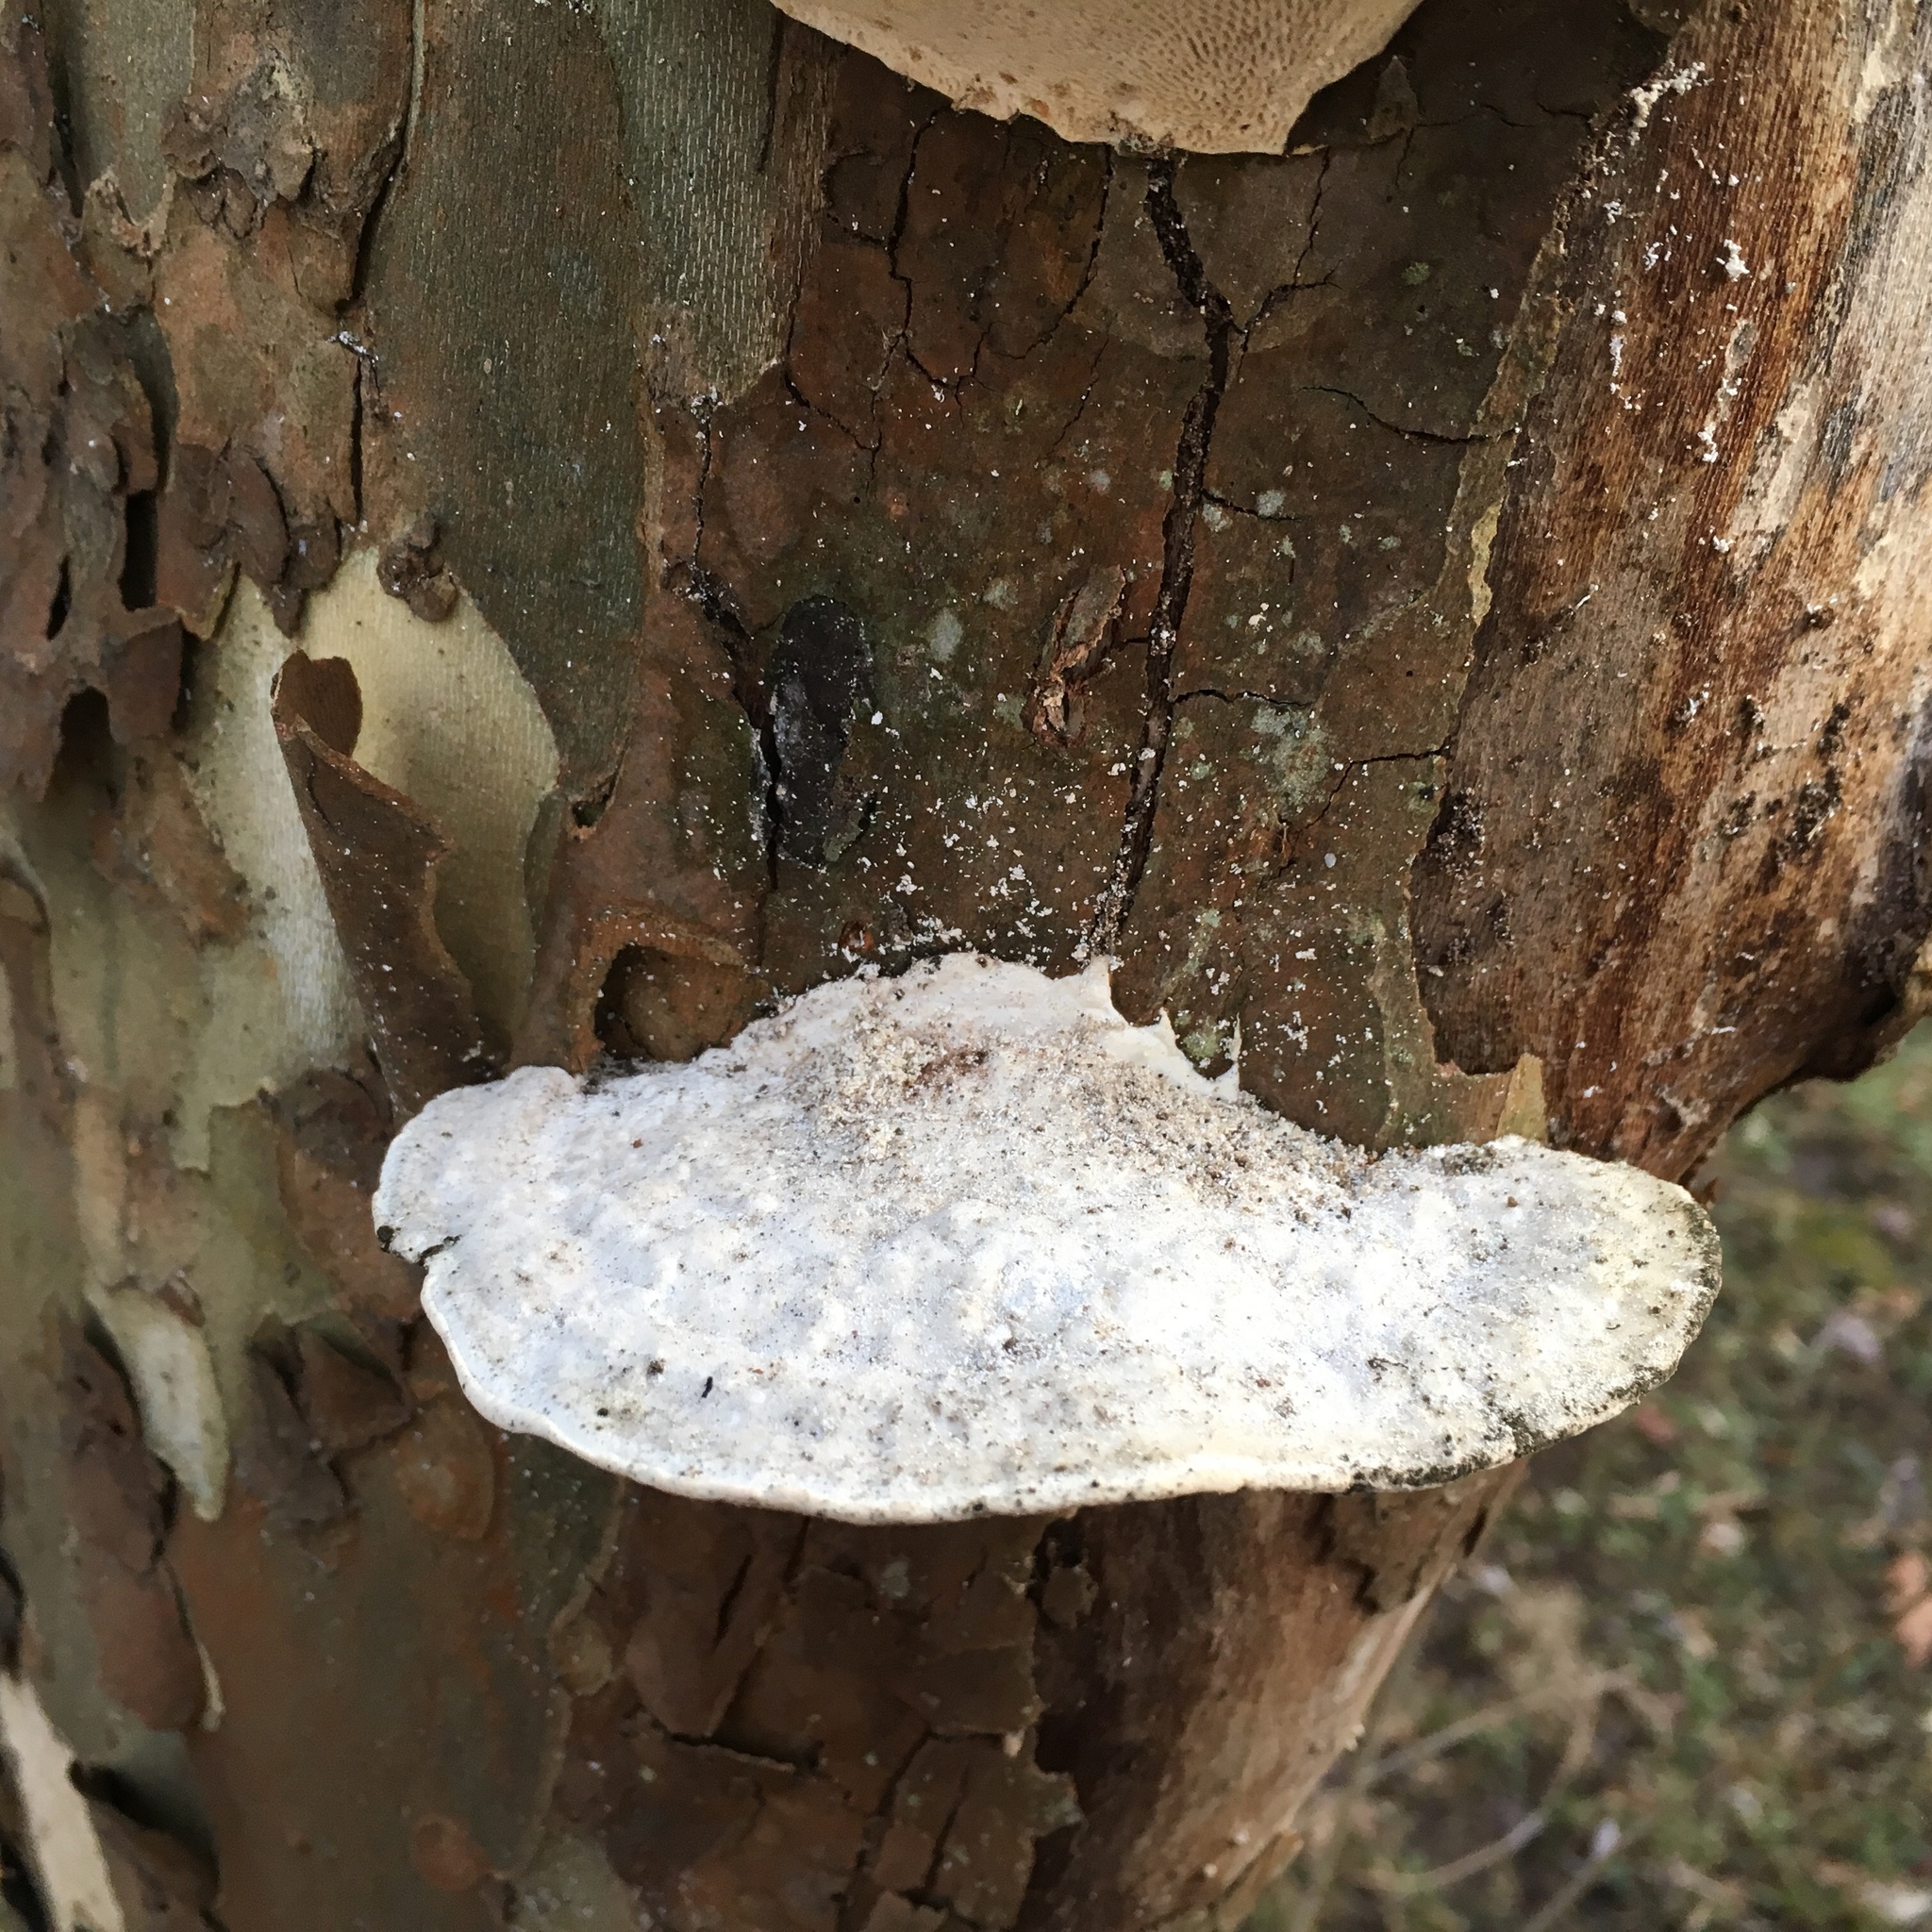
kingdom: Fungi
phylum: Basidiomycota
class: Agaricomycetes
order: Polyporales
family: Polyporaceae
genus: Trametes
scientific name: Trametes gibbosa
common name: Lumpy bracket
